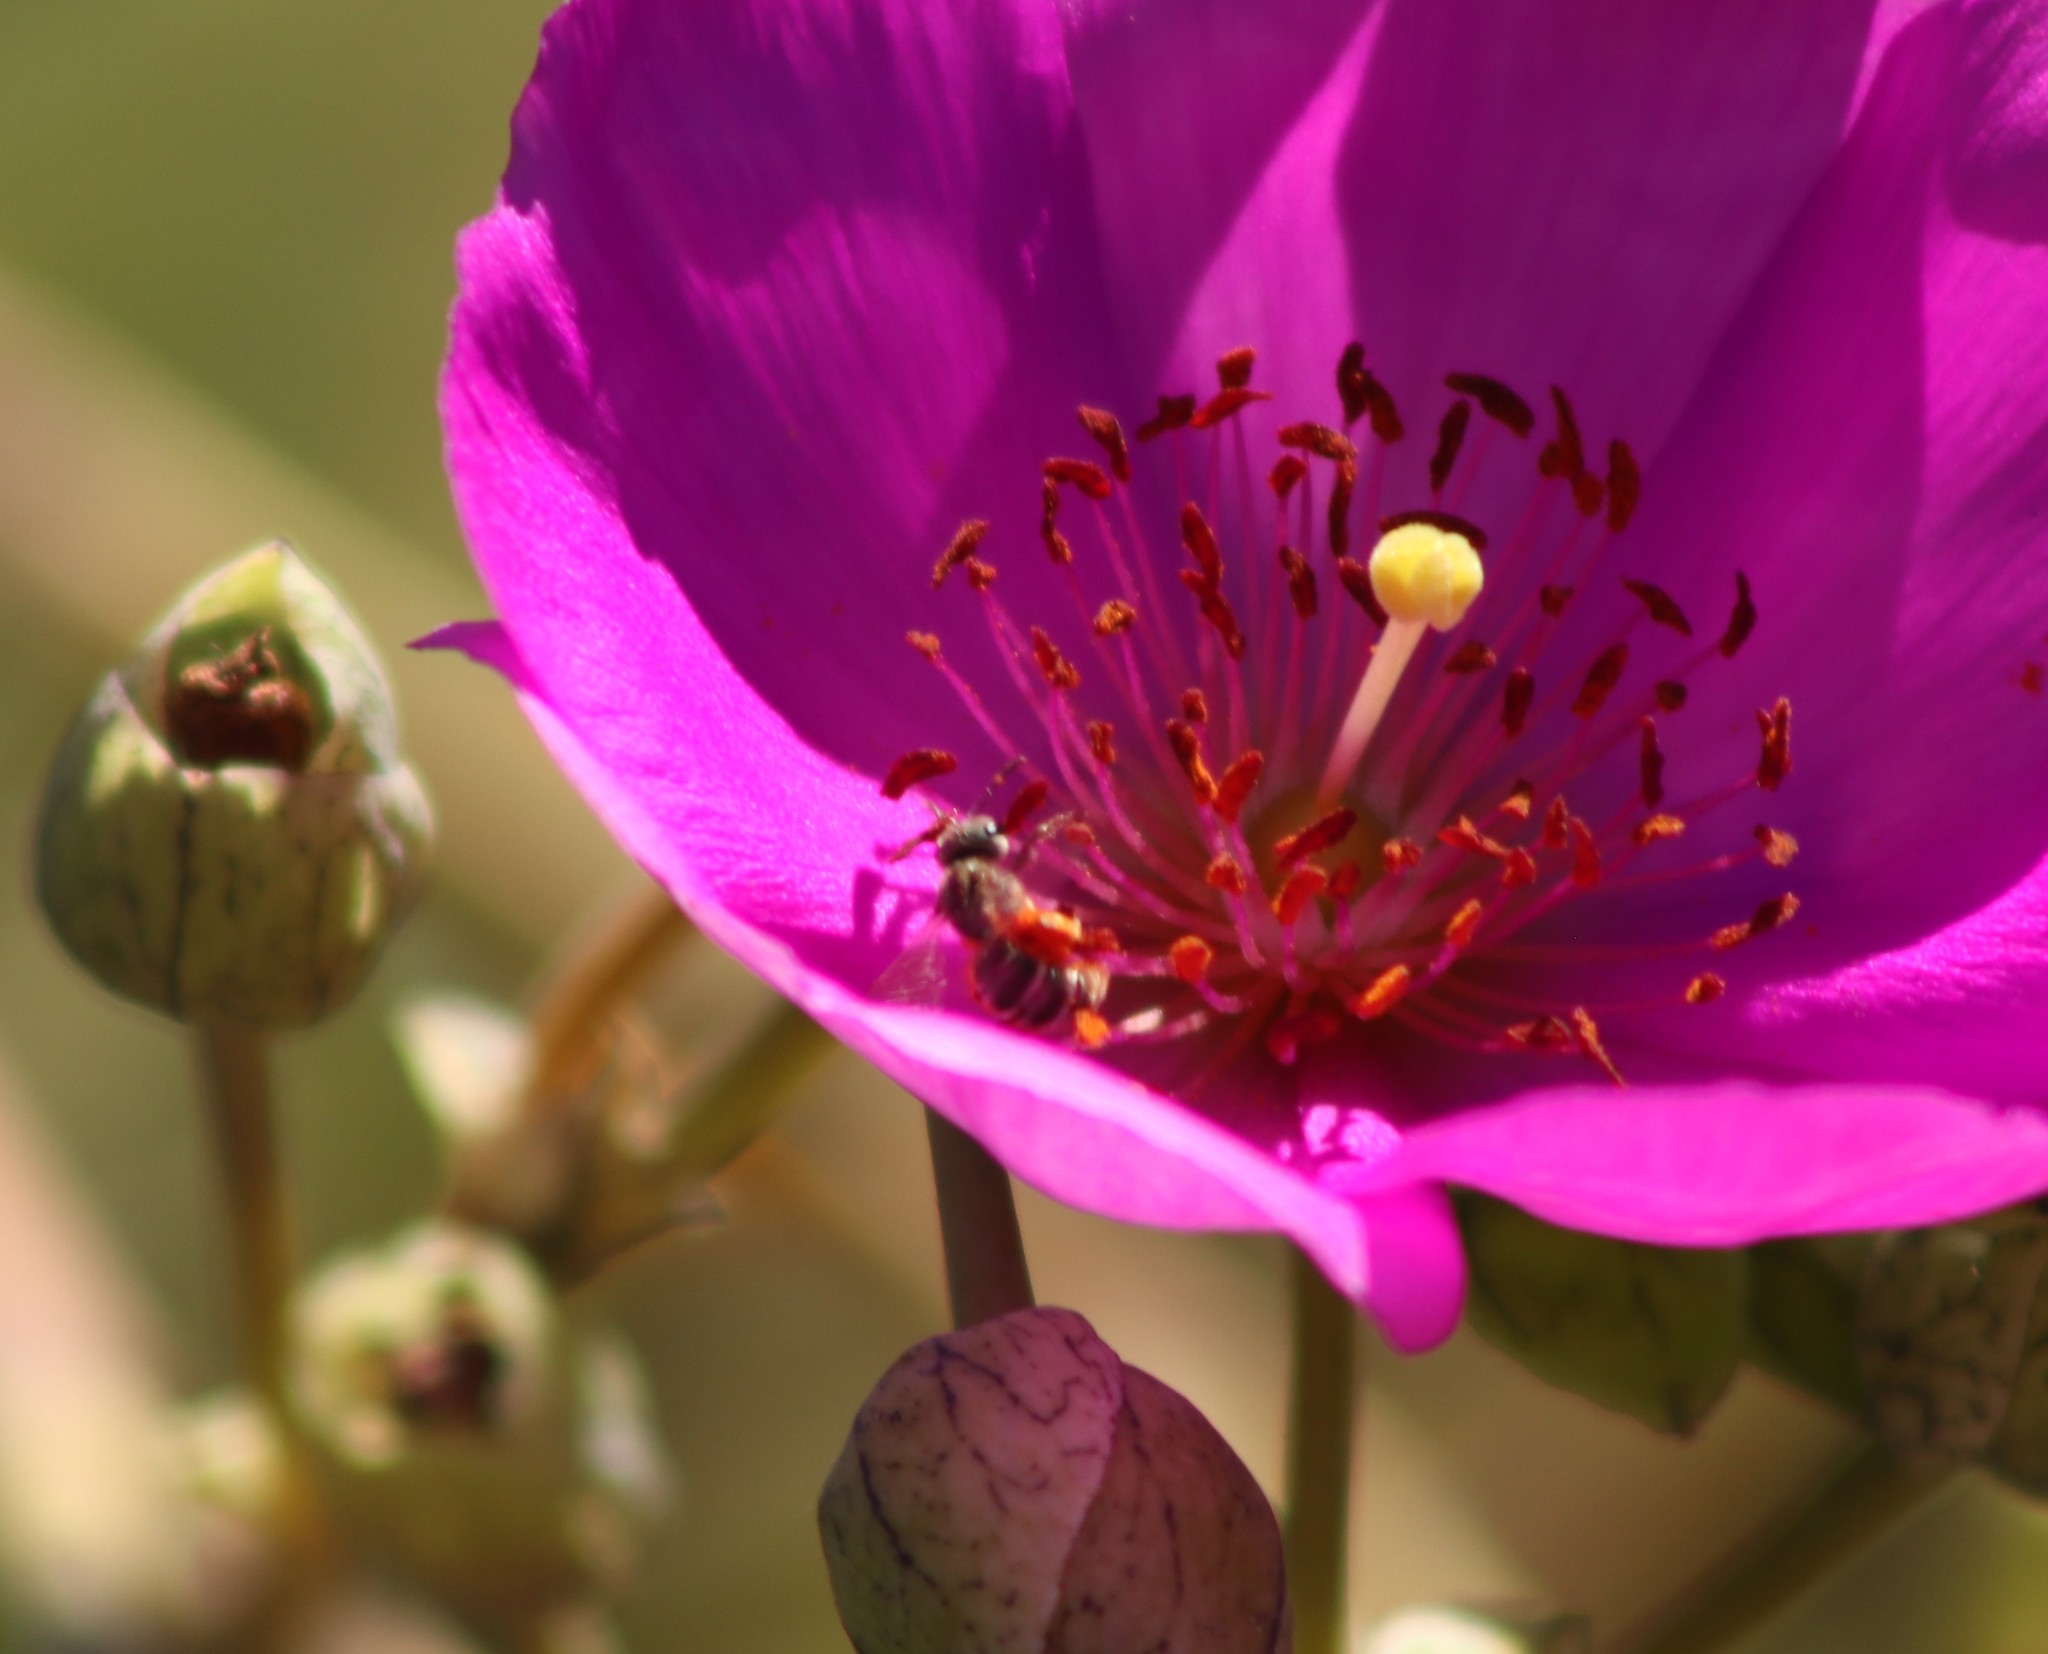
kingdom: Animalia
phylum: Arthropoda
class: Insecta
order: Hymenoptera
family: Halictidae
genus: Halictus
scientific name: Halictus tripartitus
